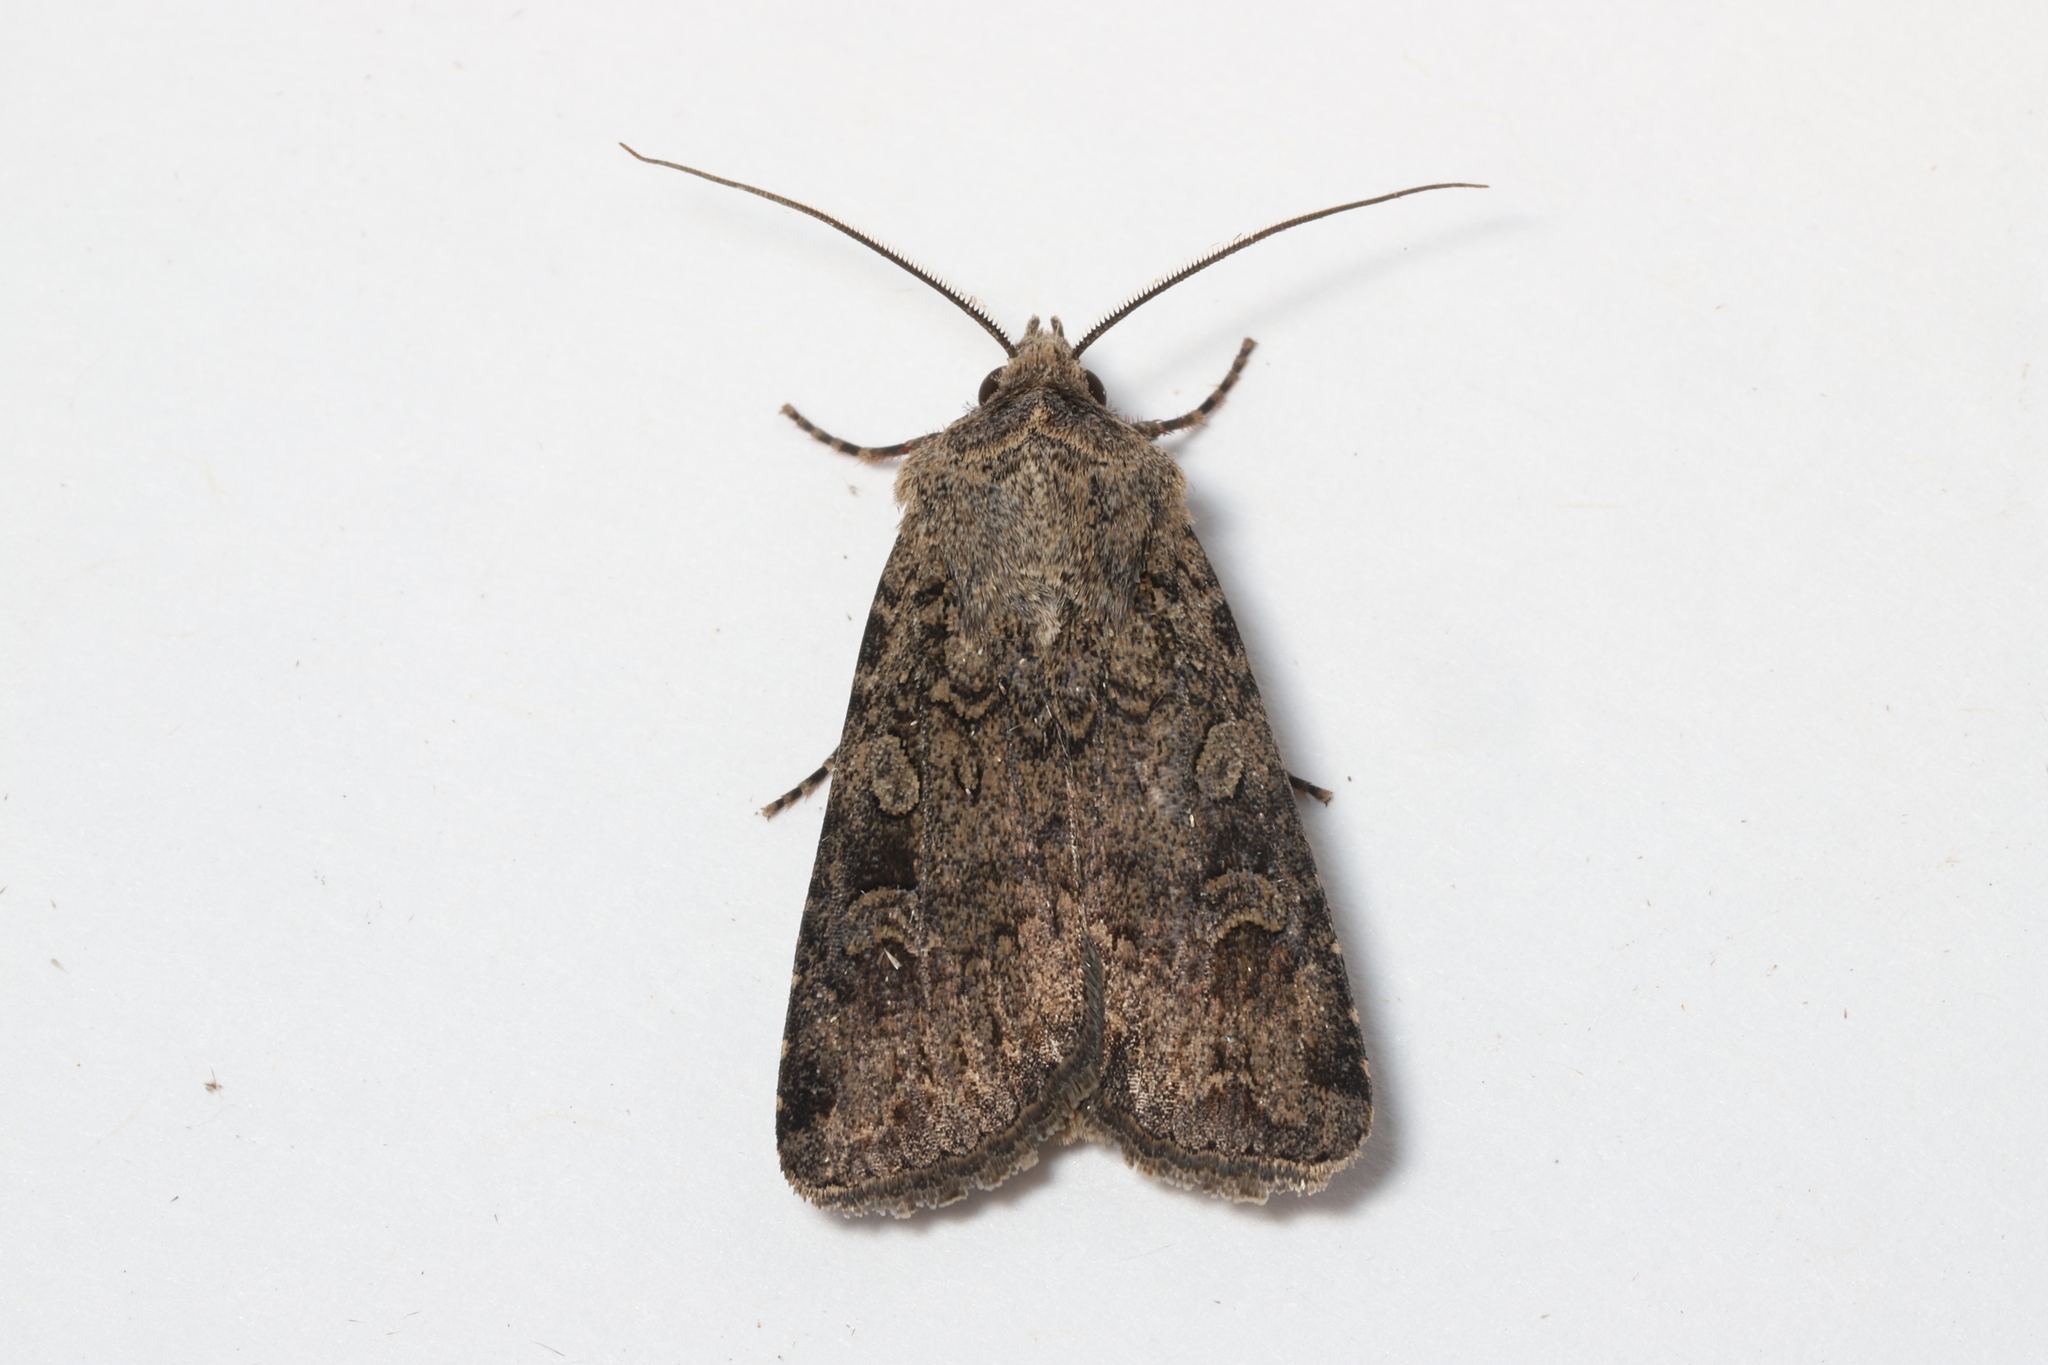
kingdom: Animalia
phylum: Arthropoda
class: Insecta
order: Lepidoptera
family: Noctuidae
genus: Apamea
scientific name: Apamea devastator
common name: Glassy cutworm
